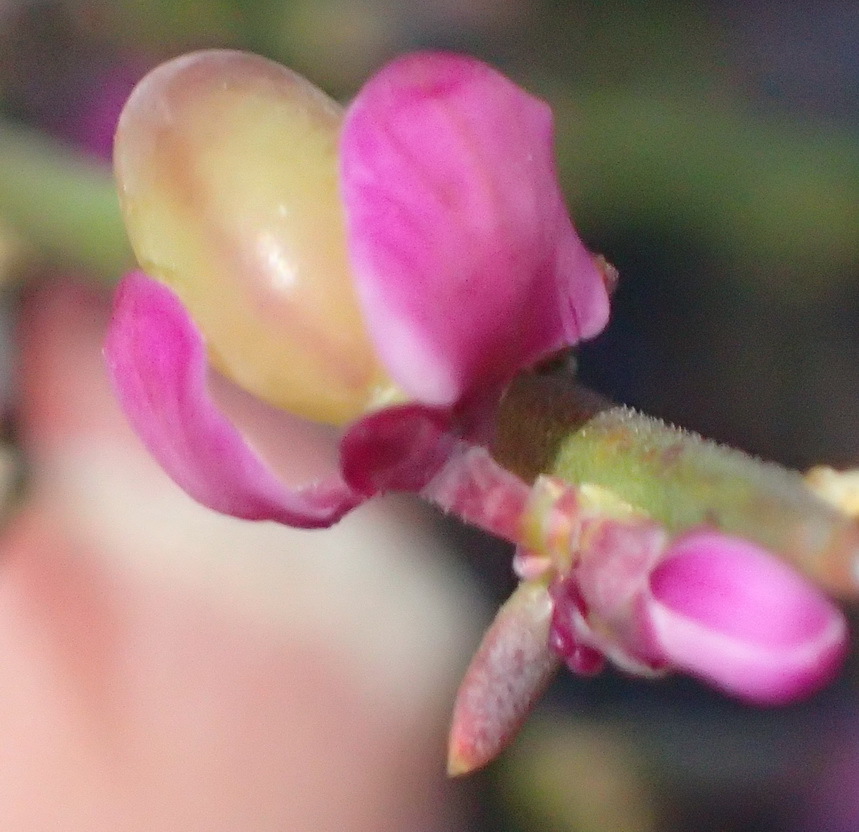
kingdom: Plantae
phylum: Tracheophyta
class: Magnoliopsida
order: Fabales
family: Polygalaceae
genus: Muraltia
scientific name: Muraltia spinosa
